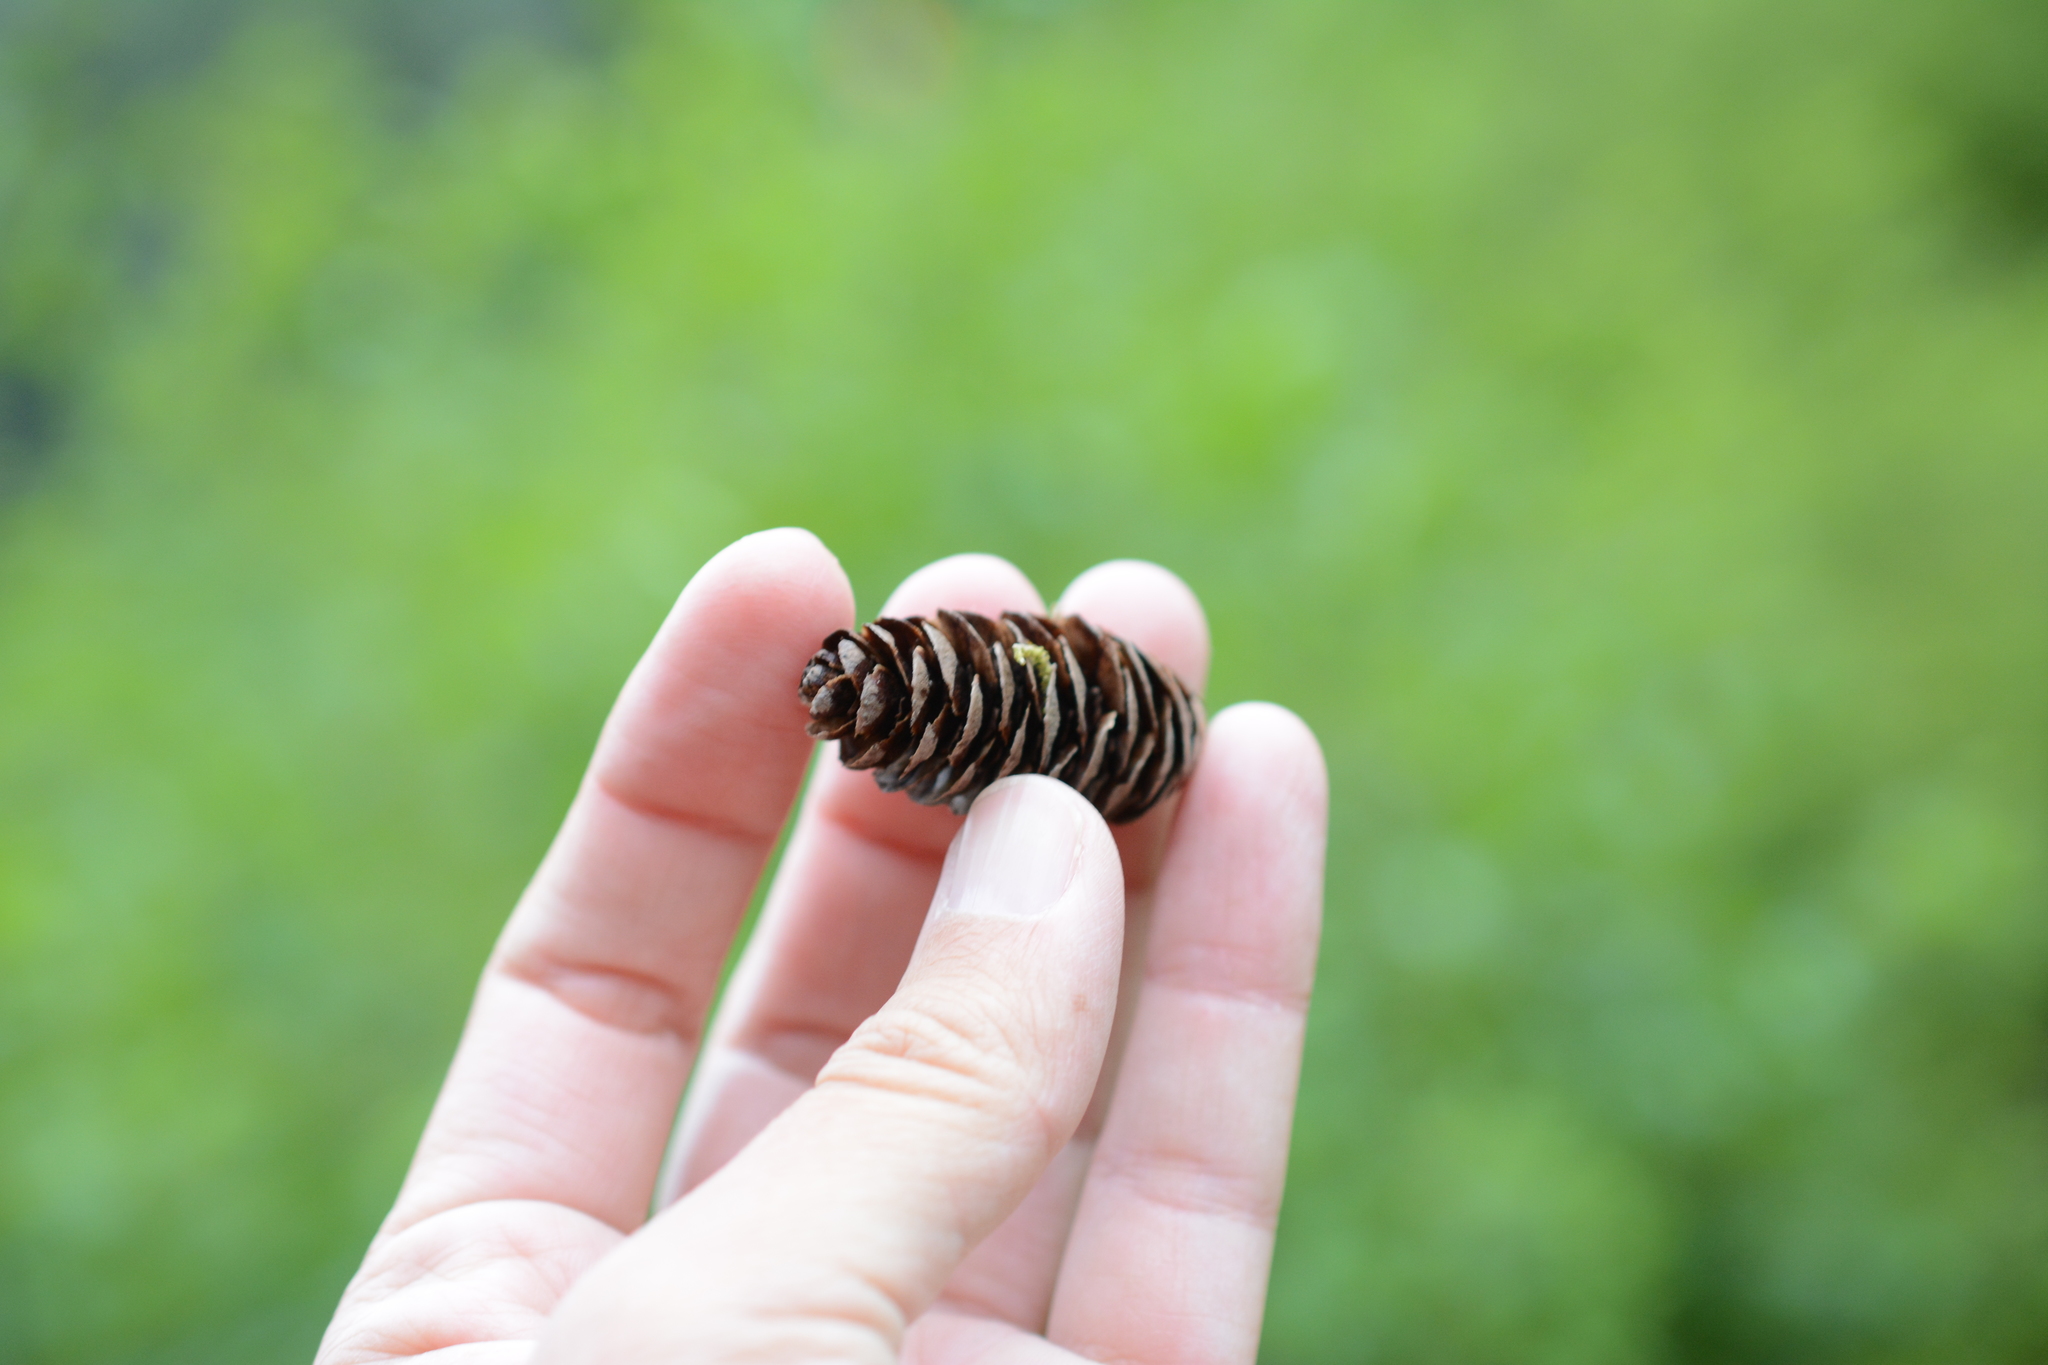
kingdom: Plantae
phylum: Tracheophyta
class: Pinopsida
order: Pinales
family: Pinaceae
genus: Tsuga
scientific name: Tsuga mertensiana
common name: Mountain hemlock
